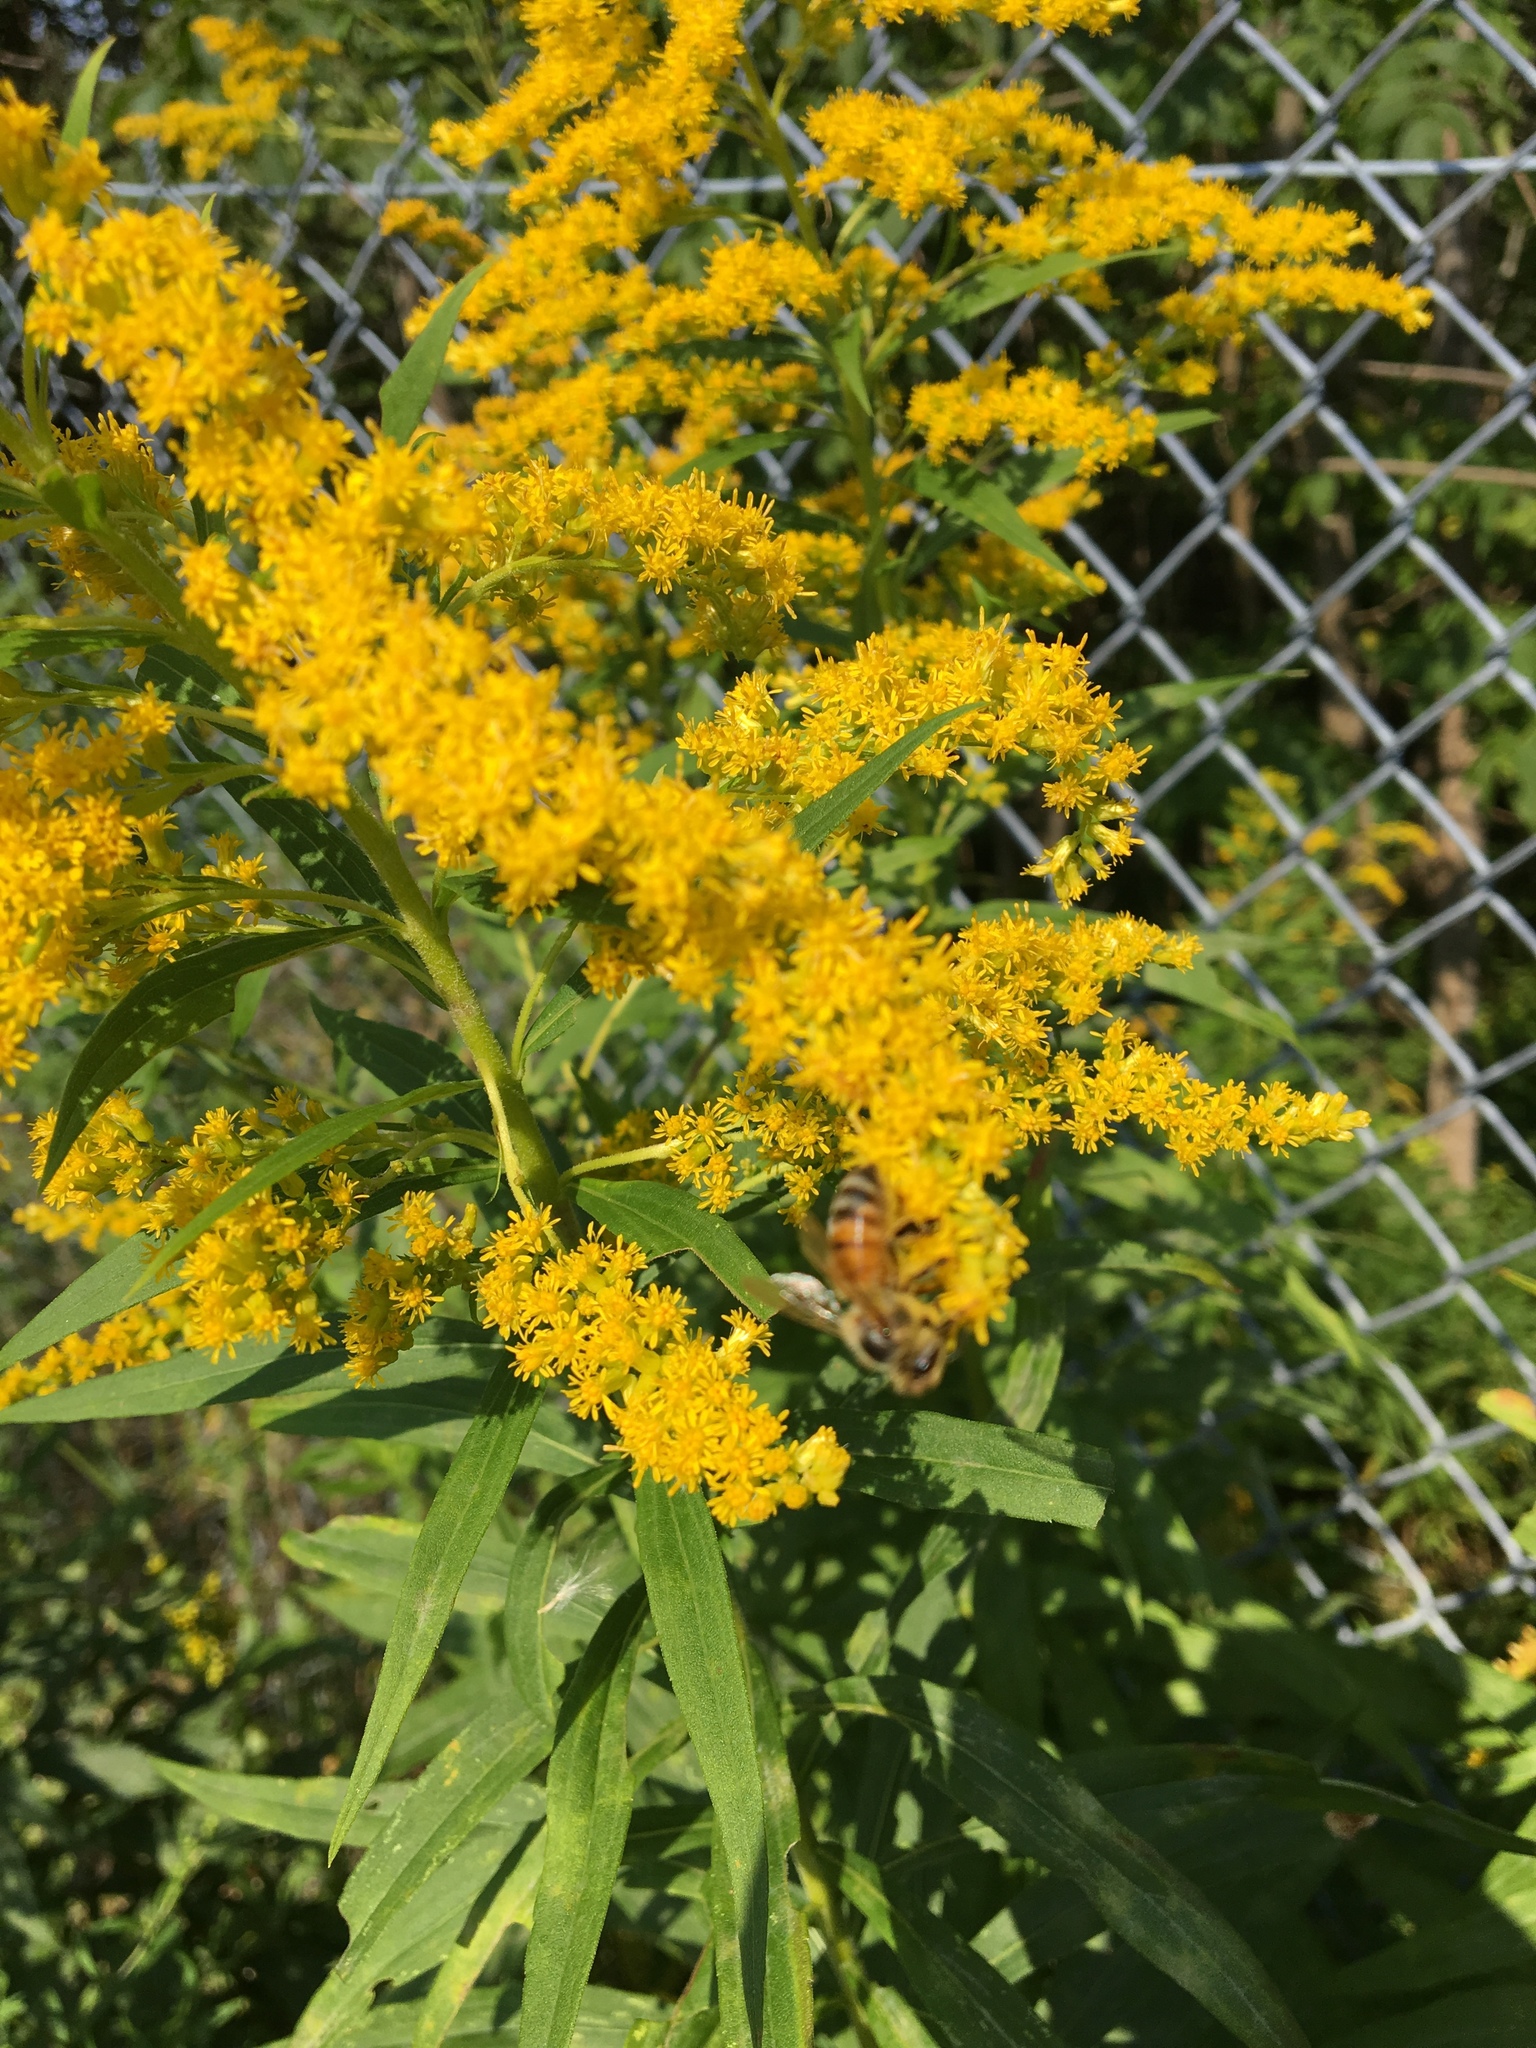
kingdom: Animalia
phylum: Arthropoda
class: Insecta
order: Hymenoptera
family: Apidae
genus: Apis
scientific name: Apis mellifera
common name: Honey bee
